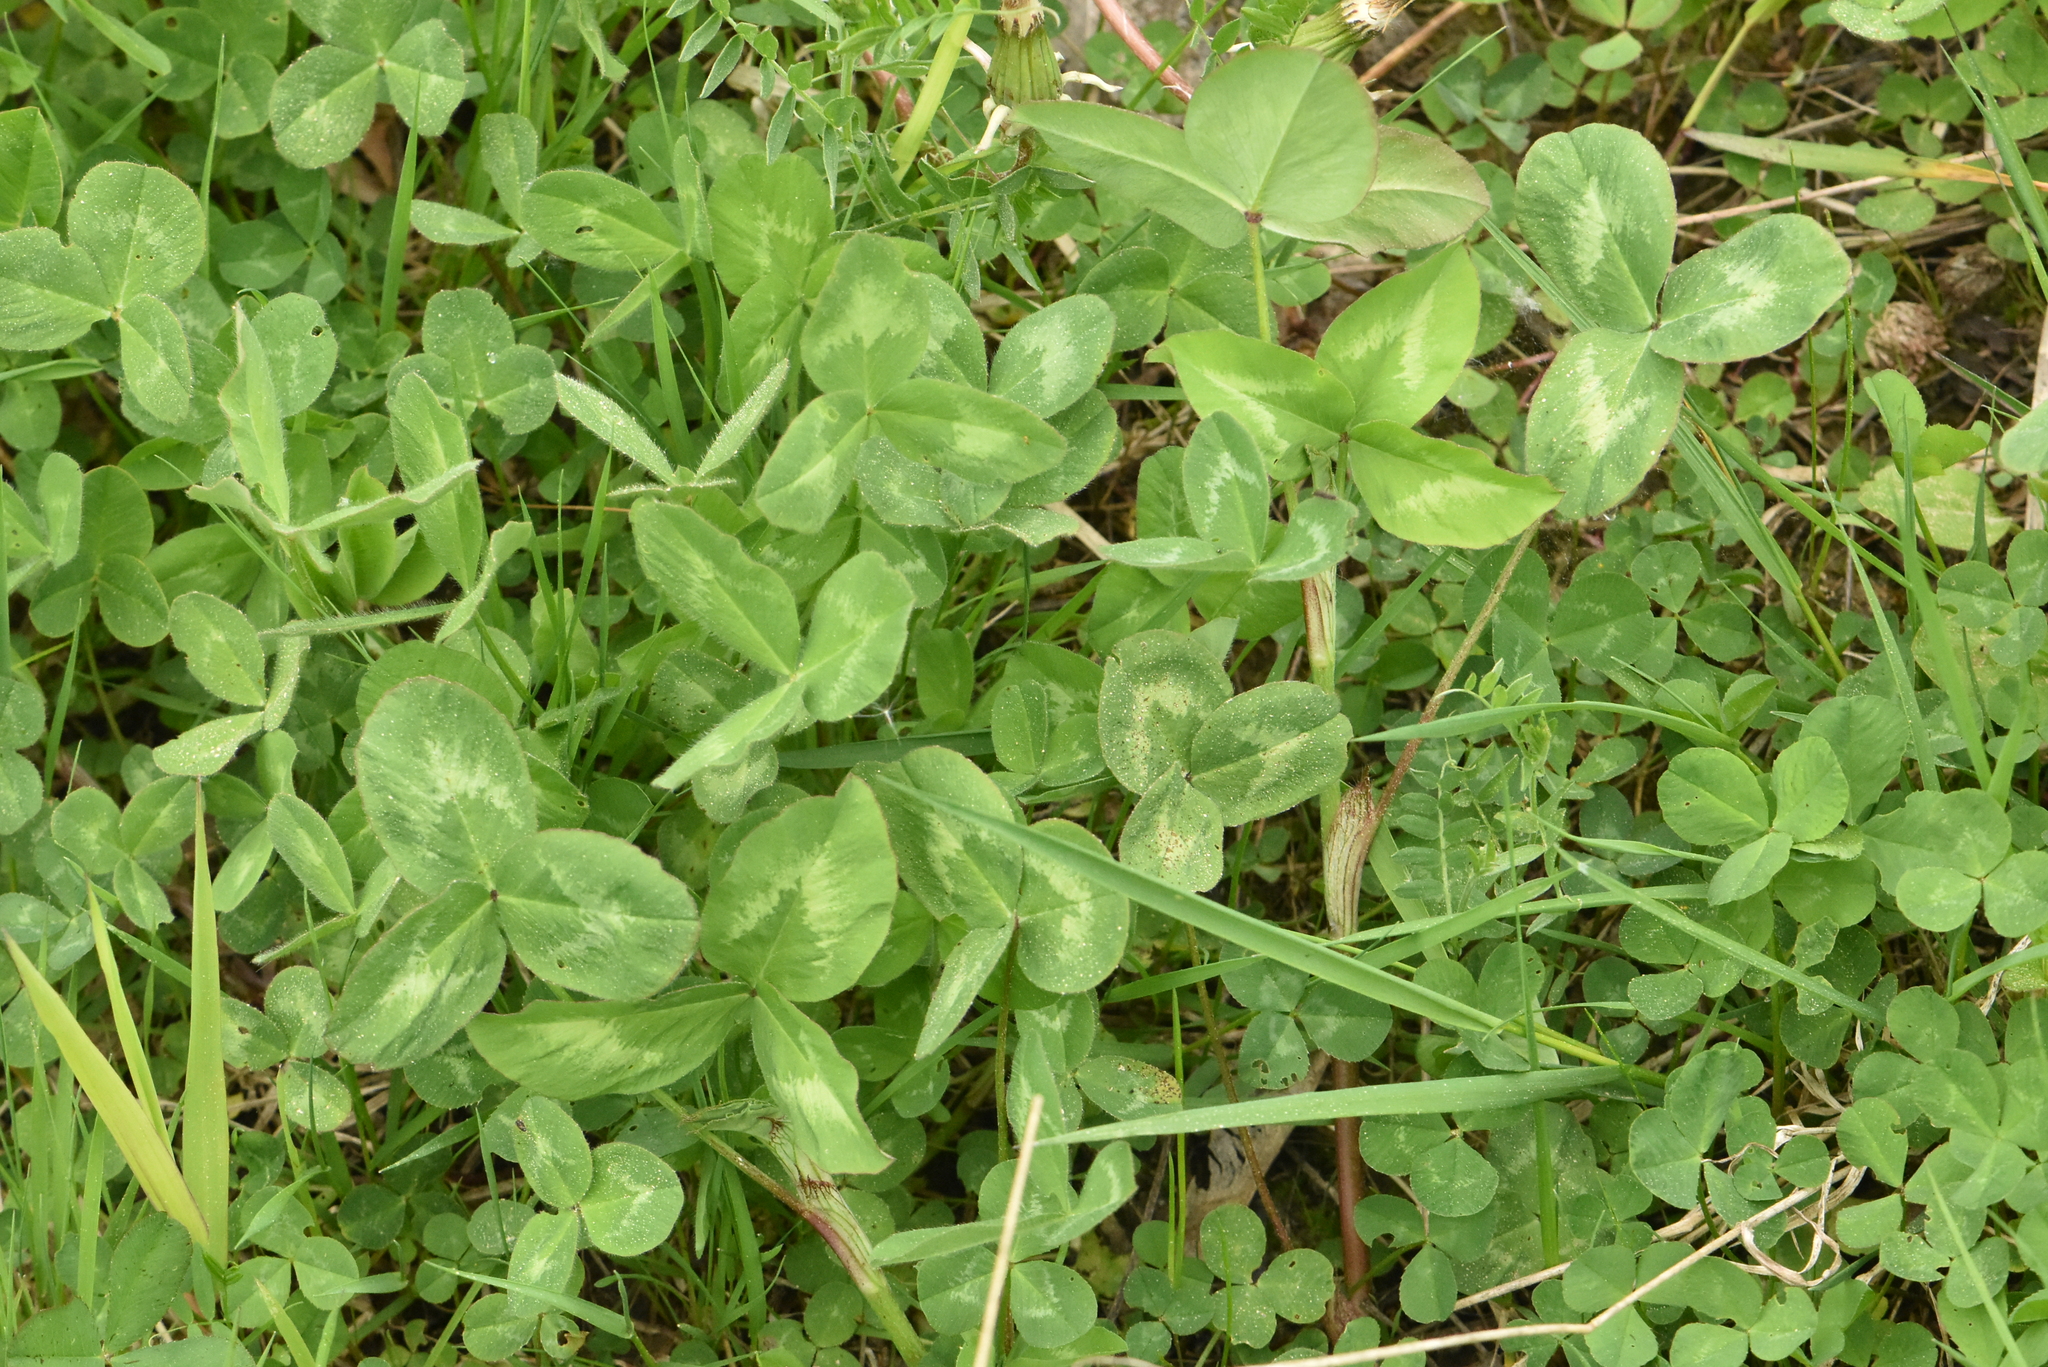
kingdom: Plantae
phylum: Tracheophyta
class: Magnoliopsida
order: Fabales
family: Fabaceae
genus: Trifolium
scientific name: Trifolium pratense
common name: Red clover
